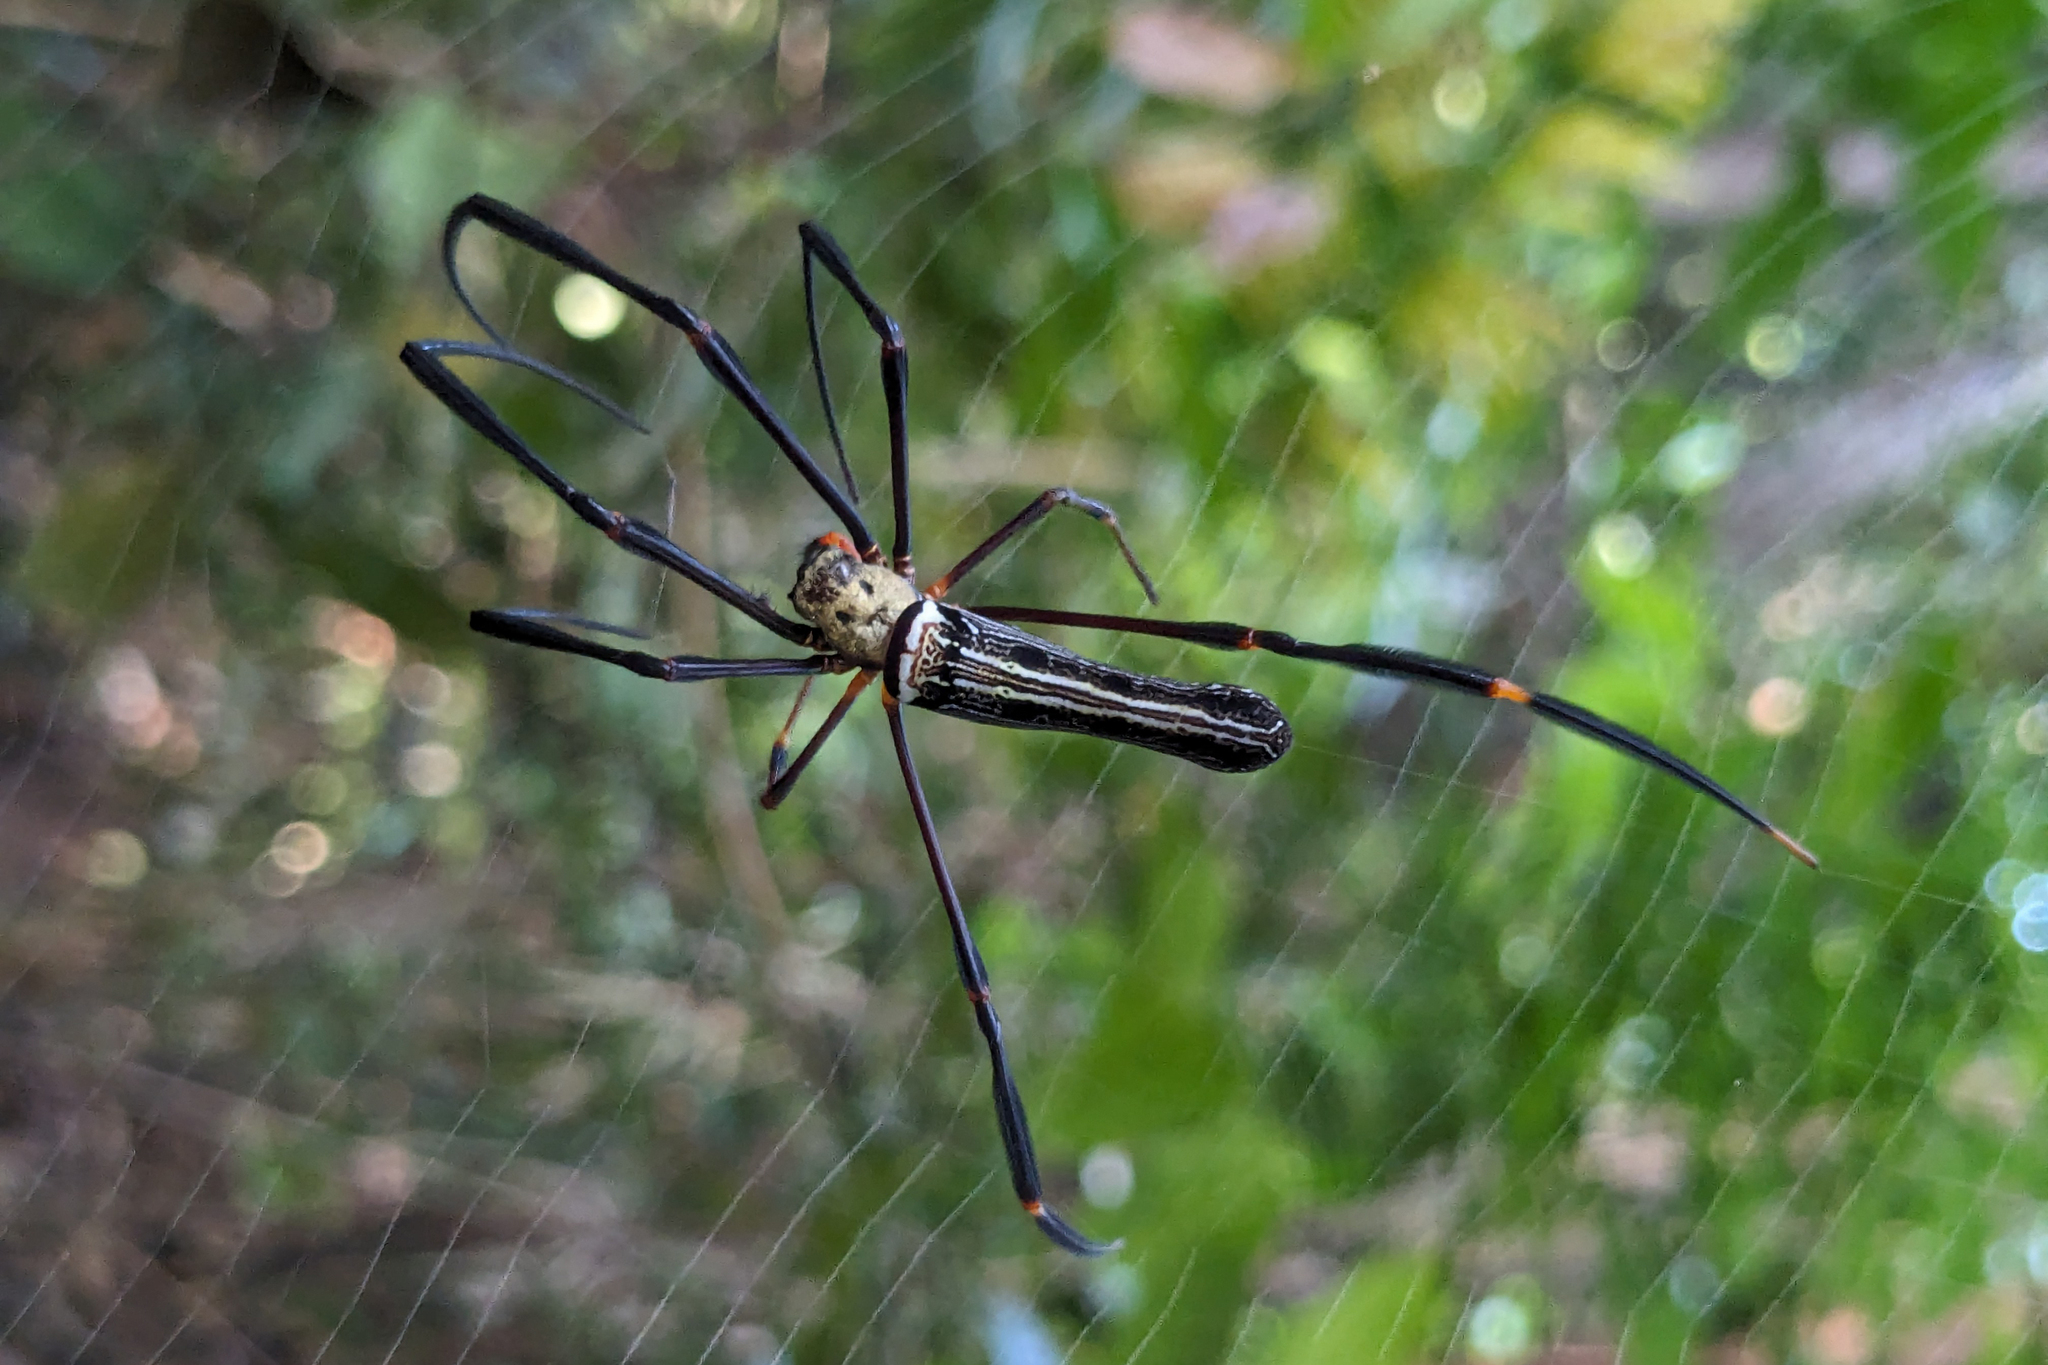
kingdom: Animalia
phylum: Arthropoda
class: Arachnida
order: Araneae
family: Araneidae
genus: Nephila
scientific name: Nephila pilipes
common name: Giant golden orb weaver
